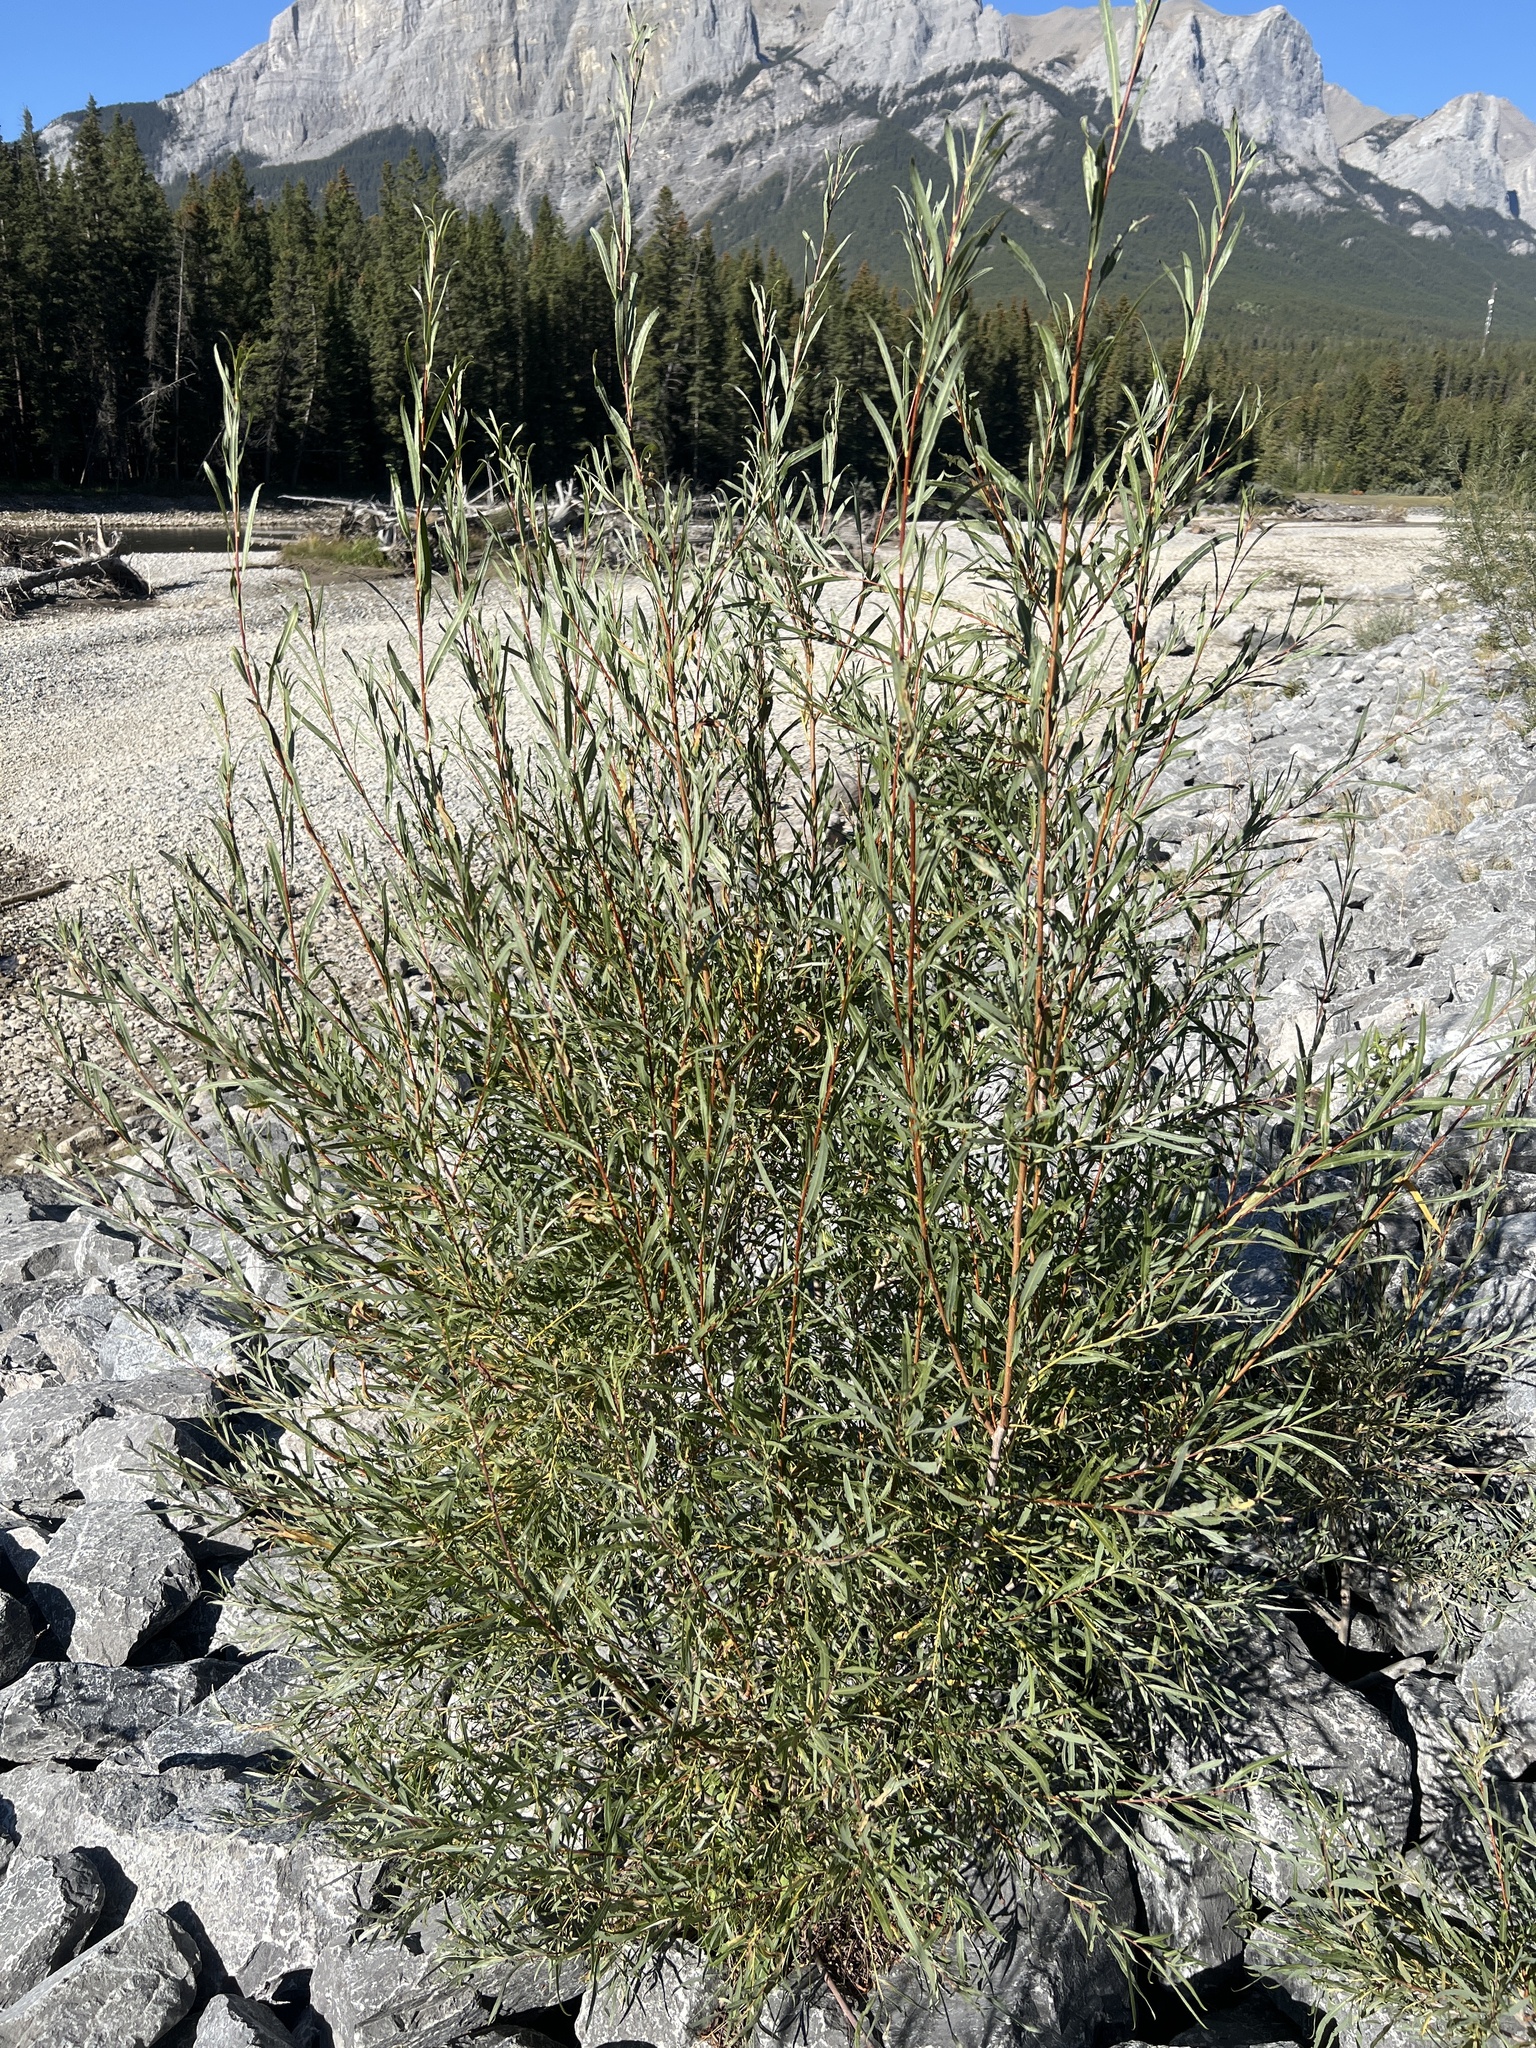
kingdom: Plantae
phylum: Tracheophyta
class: Magnoliopsida
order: Malpighiales
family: Salicaceae
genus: Salix
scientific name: Salix interior
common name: Sandbar willow
